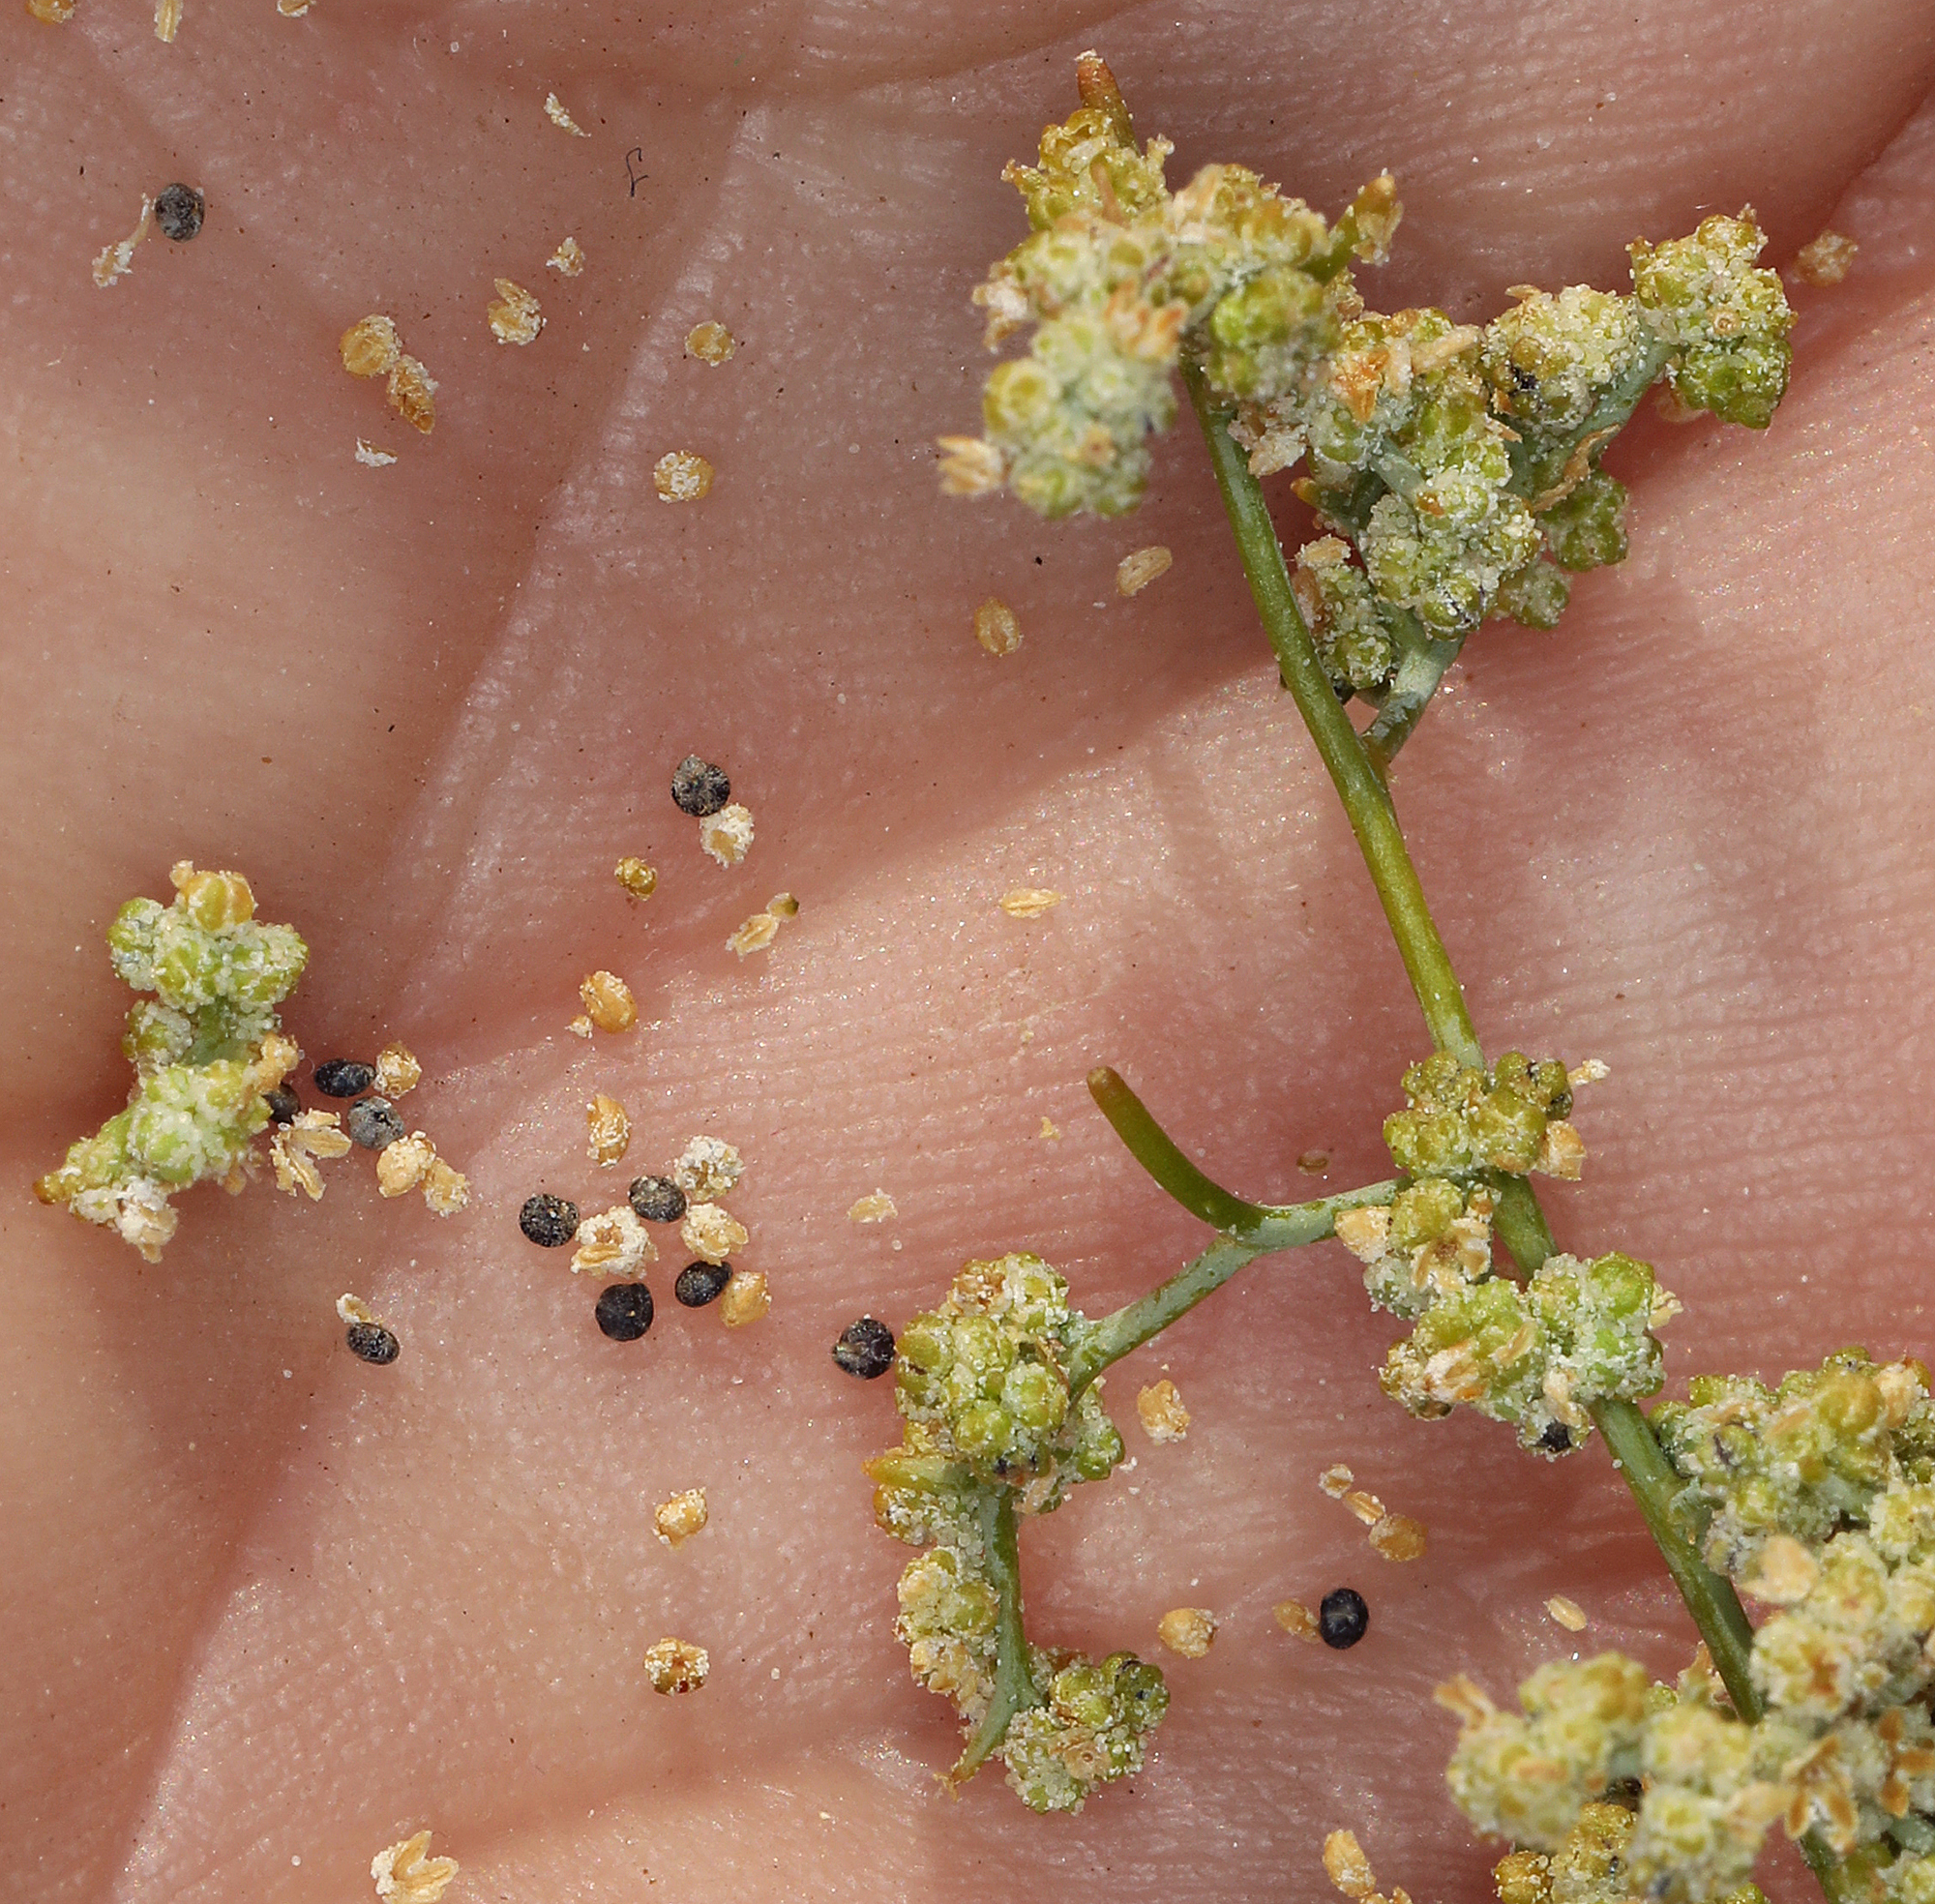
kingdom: Plantae
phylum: Tracheophyta
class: Magnoliopsida
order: Caryophyllales
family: Amaranthaceae
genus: Chenopodium
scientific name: Chenopodium nevadense
